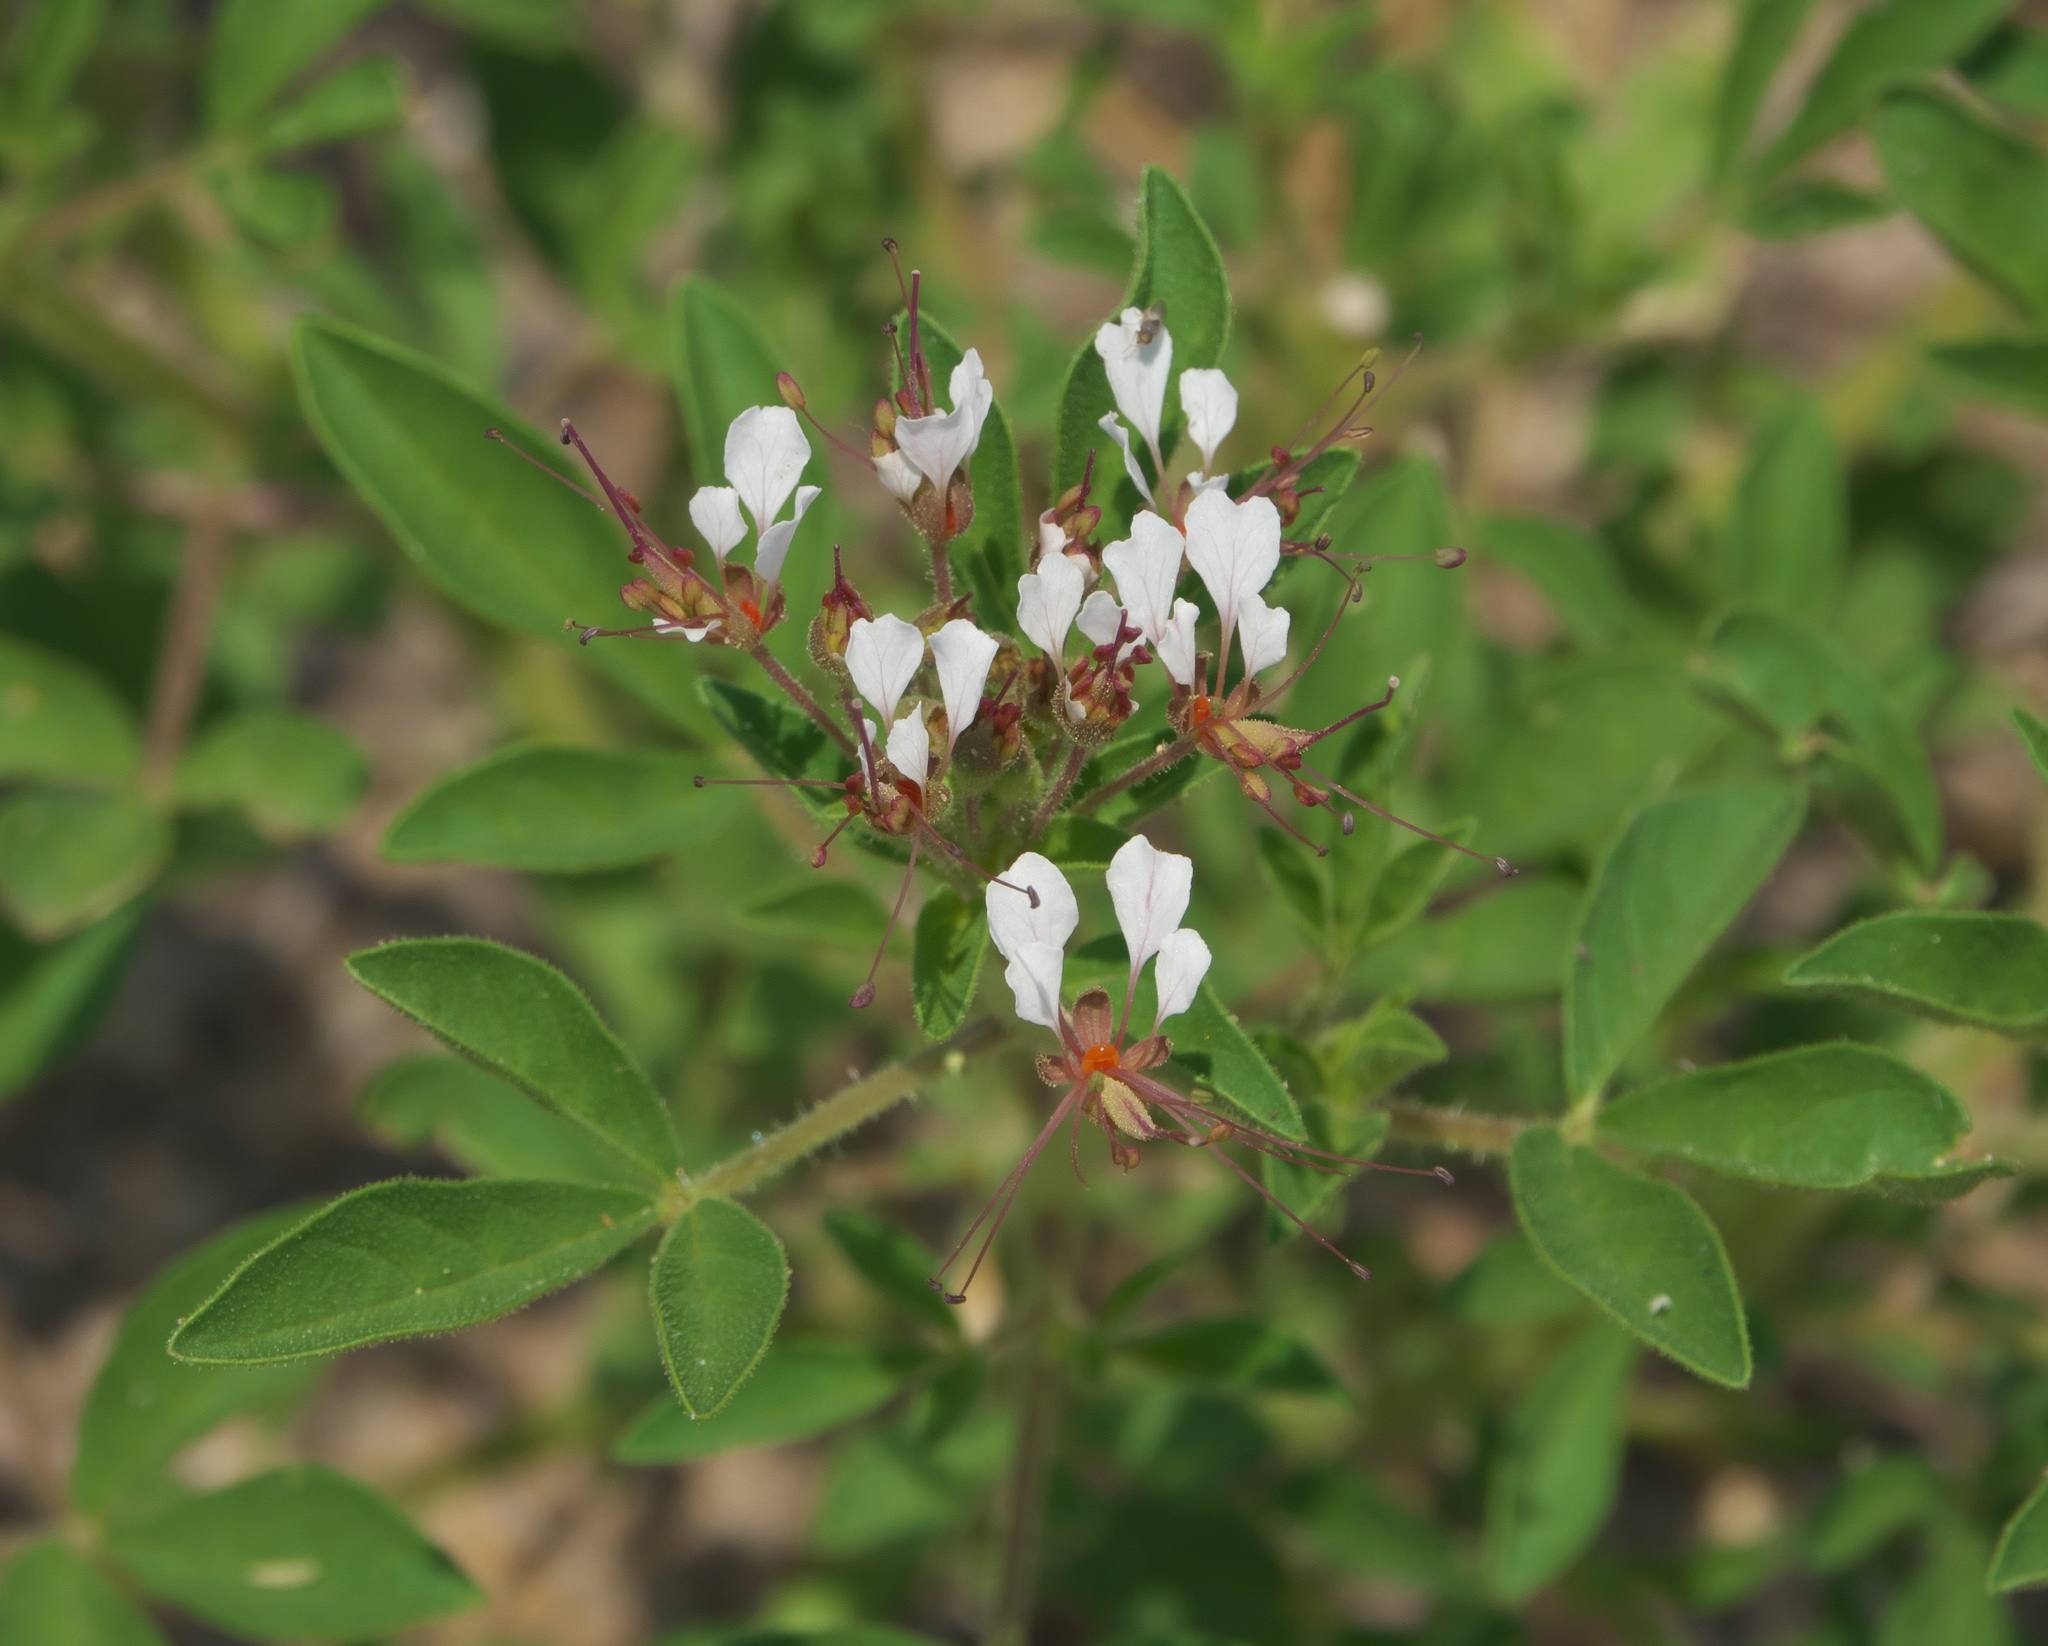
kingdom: Plantae
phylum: Tracheophyta
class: Magnoliopsida
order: Brassicales
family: Cleomaceae
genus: Polanisia
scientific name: Polanisia dodecandra
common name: Clammyweed
